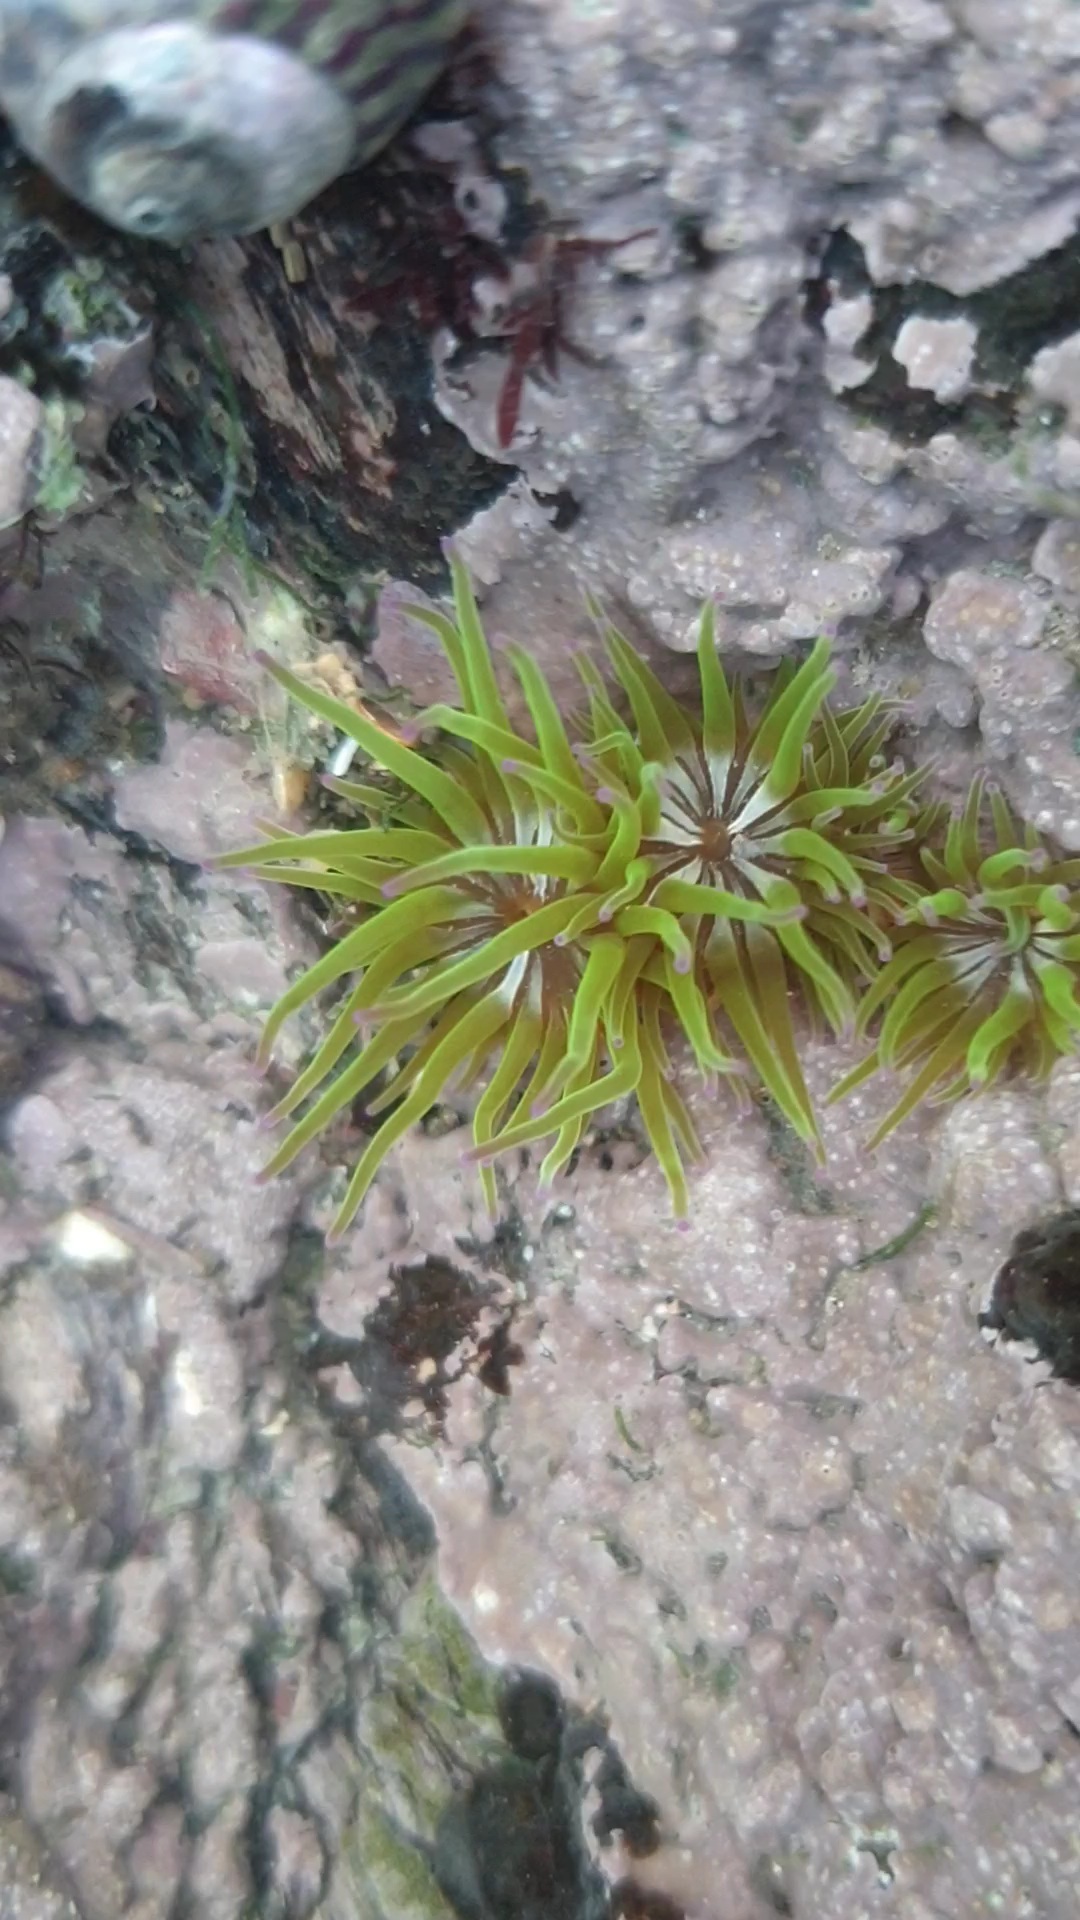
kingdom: Animalia
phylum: Cnidaria
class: Anthozoa
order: Actiniaria
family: Actiniidae
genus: Anemonia
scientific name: Anemonia viridis
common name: Snakelocks anemone
